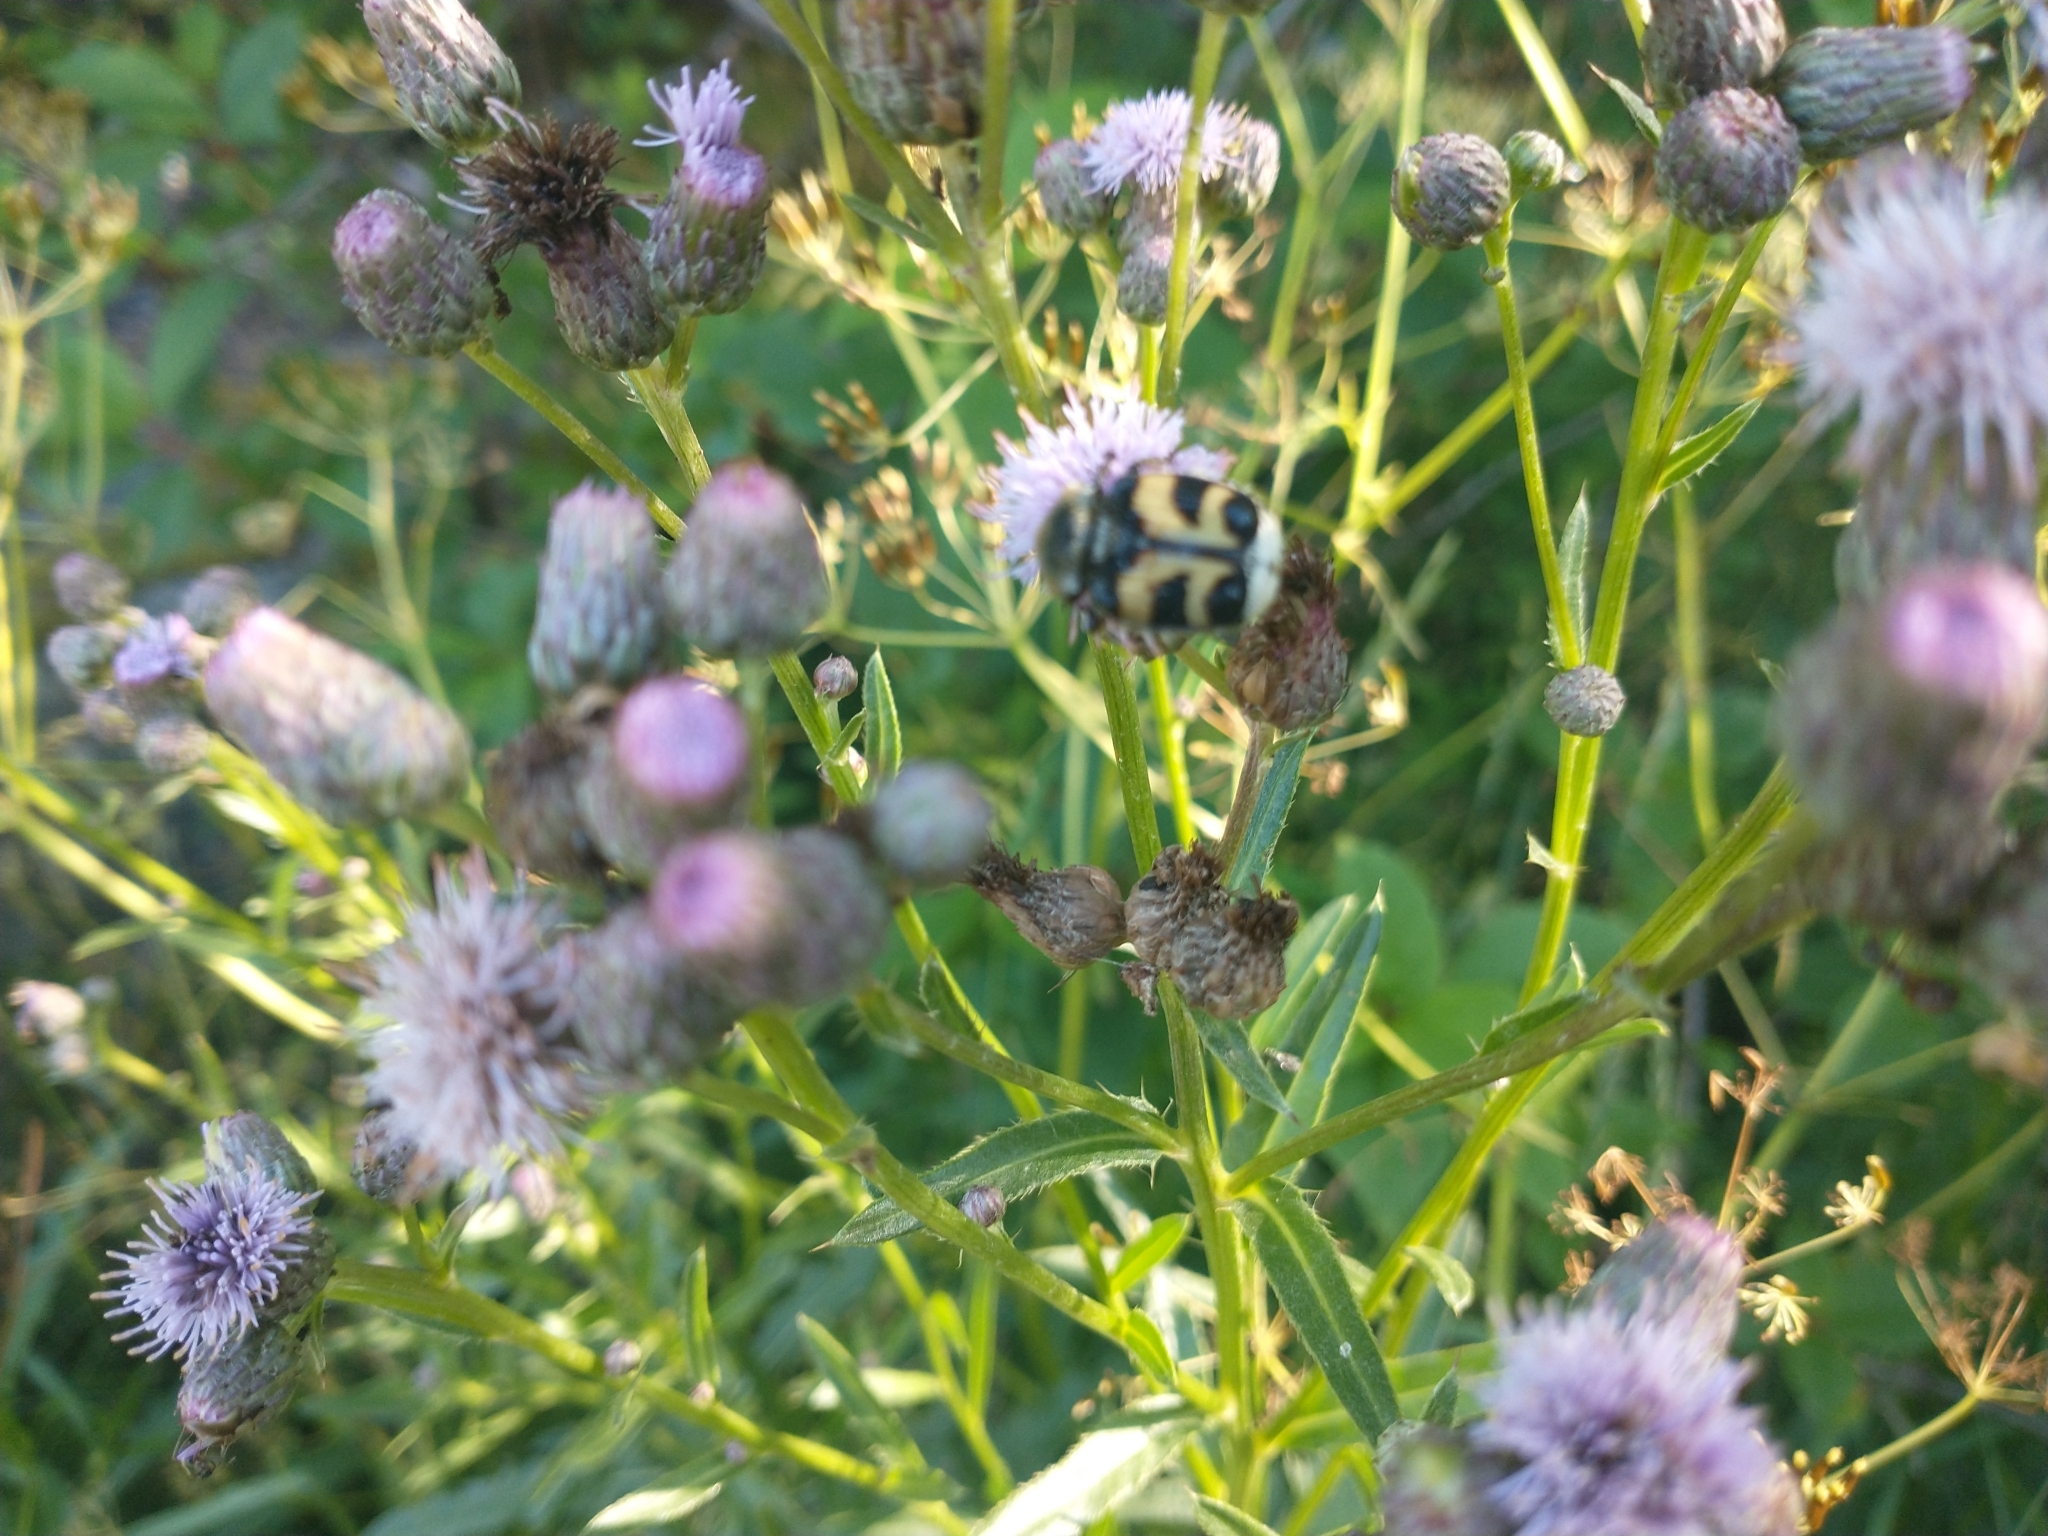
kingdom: Animalia
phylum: Arthropoda
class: Insecta
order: Coleoptera
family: Scarabaeidae
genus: Trichius
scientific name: Trichius fasciatus
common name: Bee beetle
